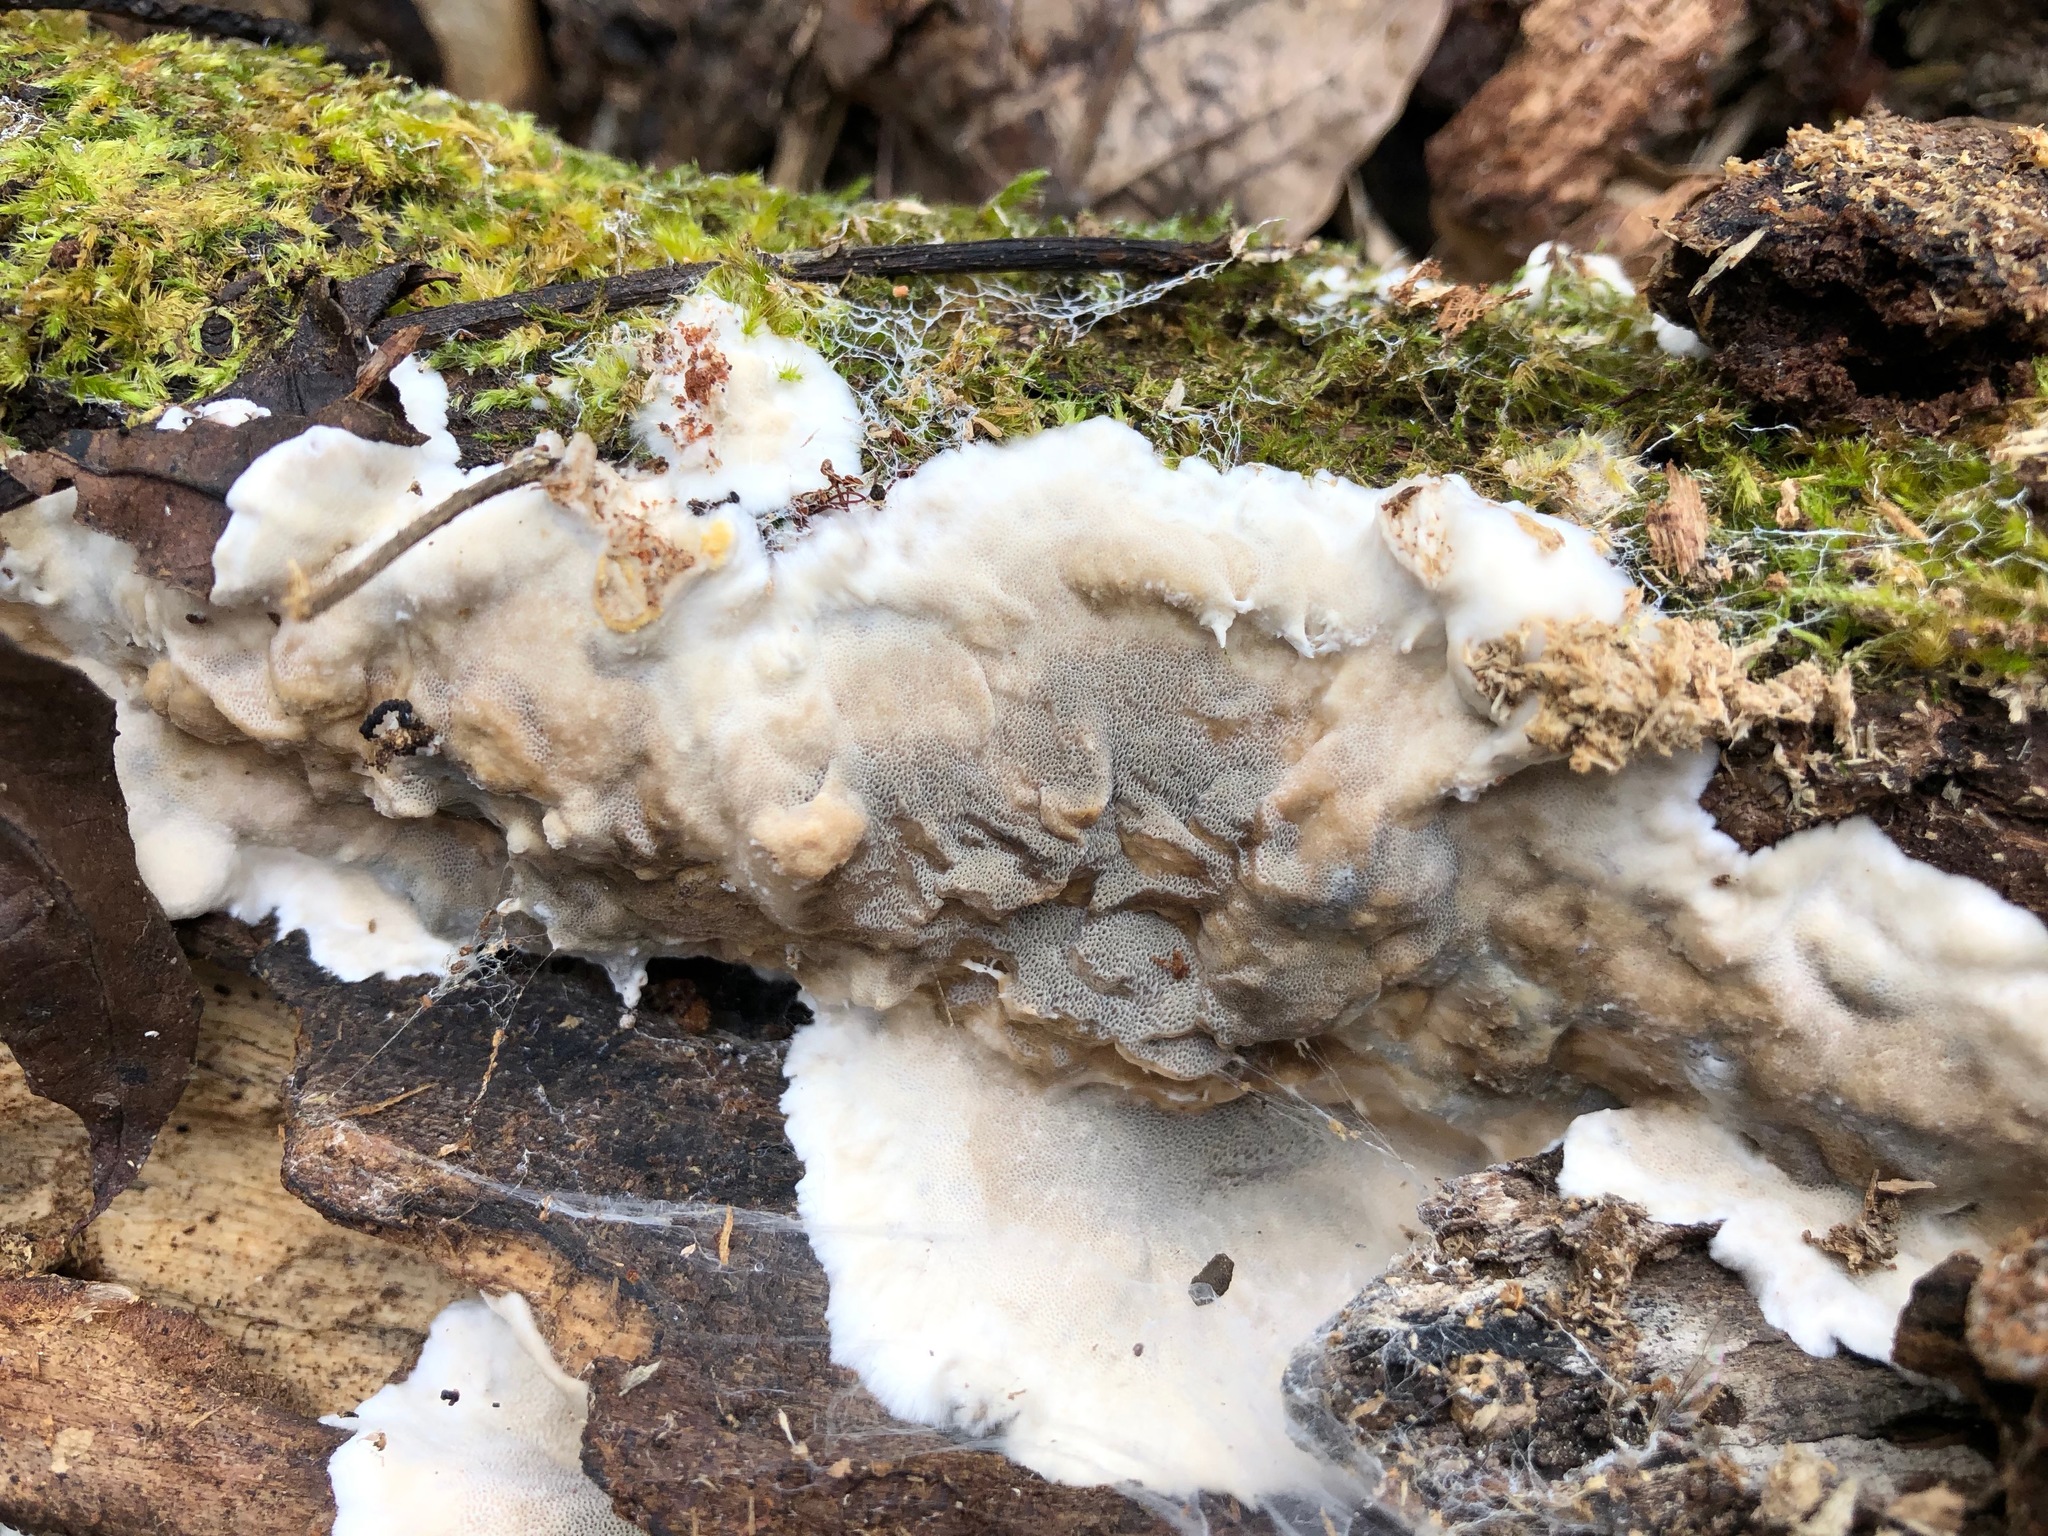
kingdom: Fungi
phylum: Basidiomycota
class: Agaricomycetes
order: Polyporales
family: Phanerochaetaceae
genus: Bjerkandera
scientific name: Bjerkandera adusta
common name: Smoky bracket
